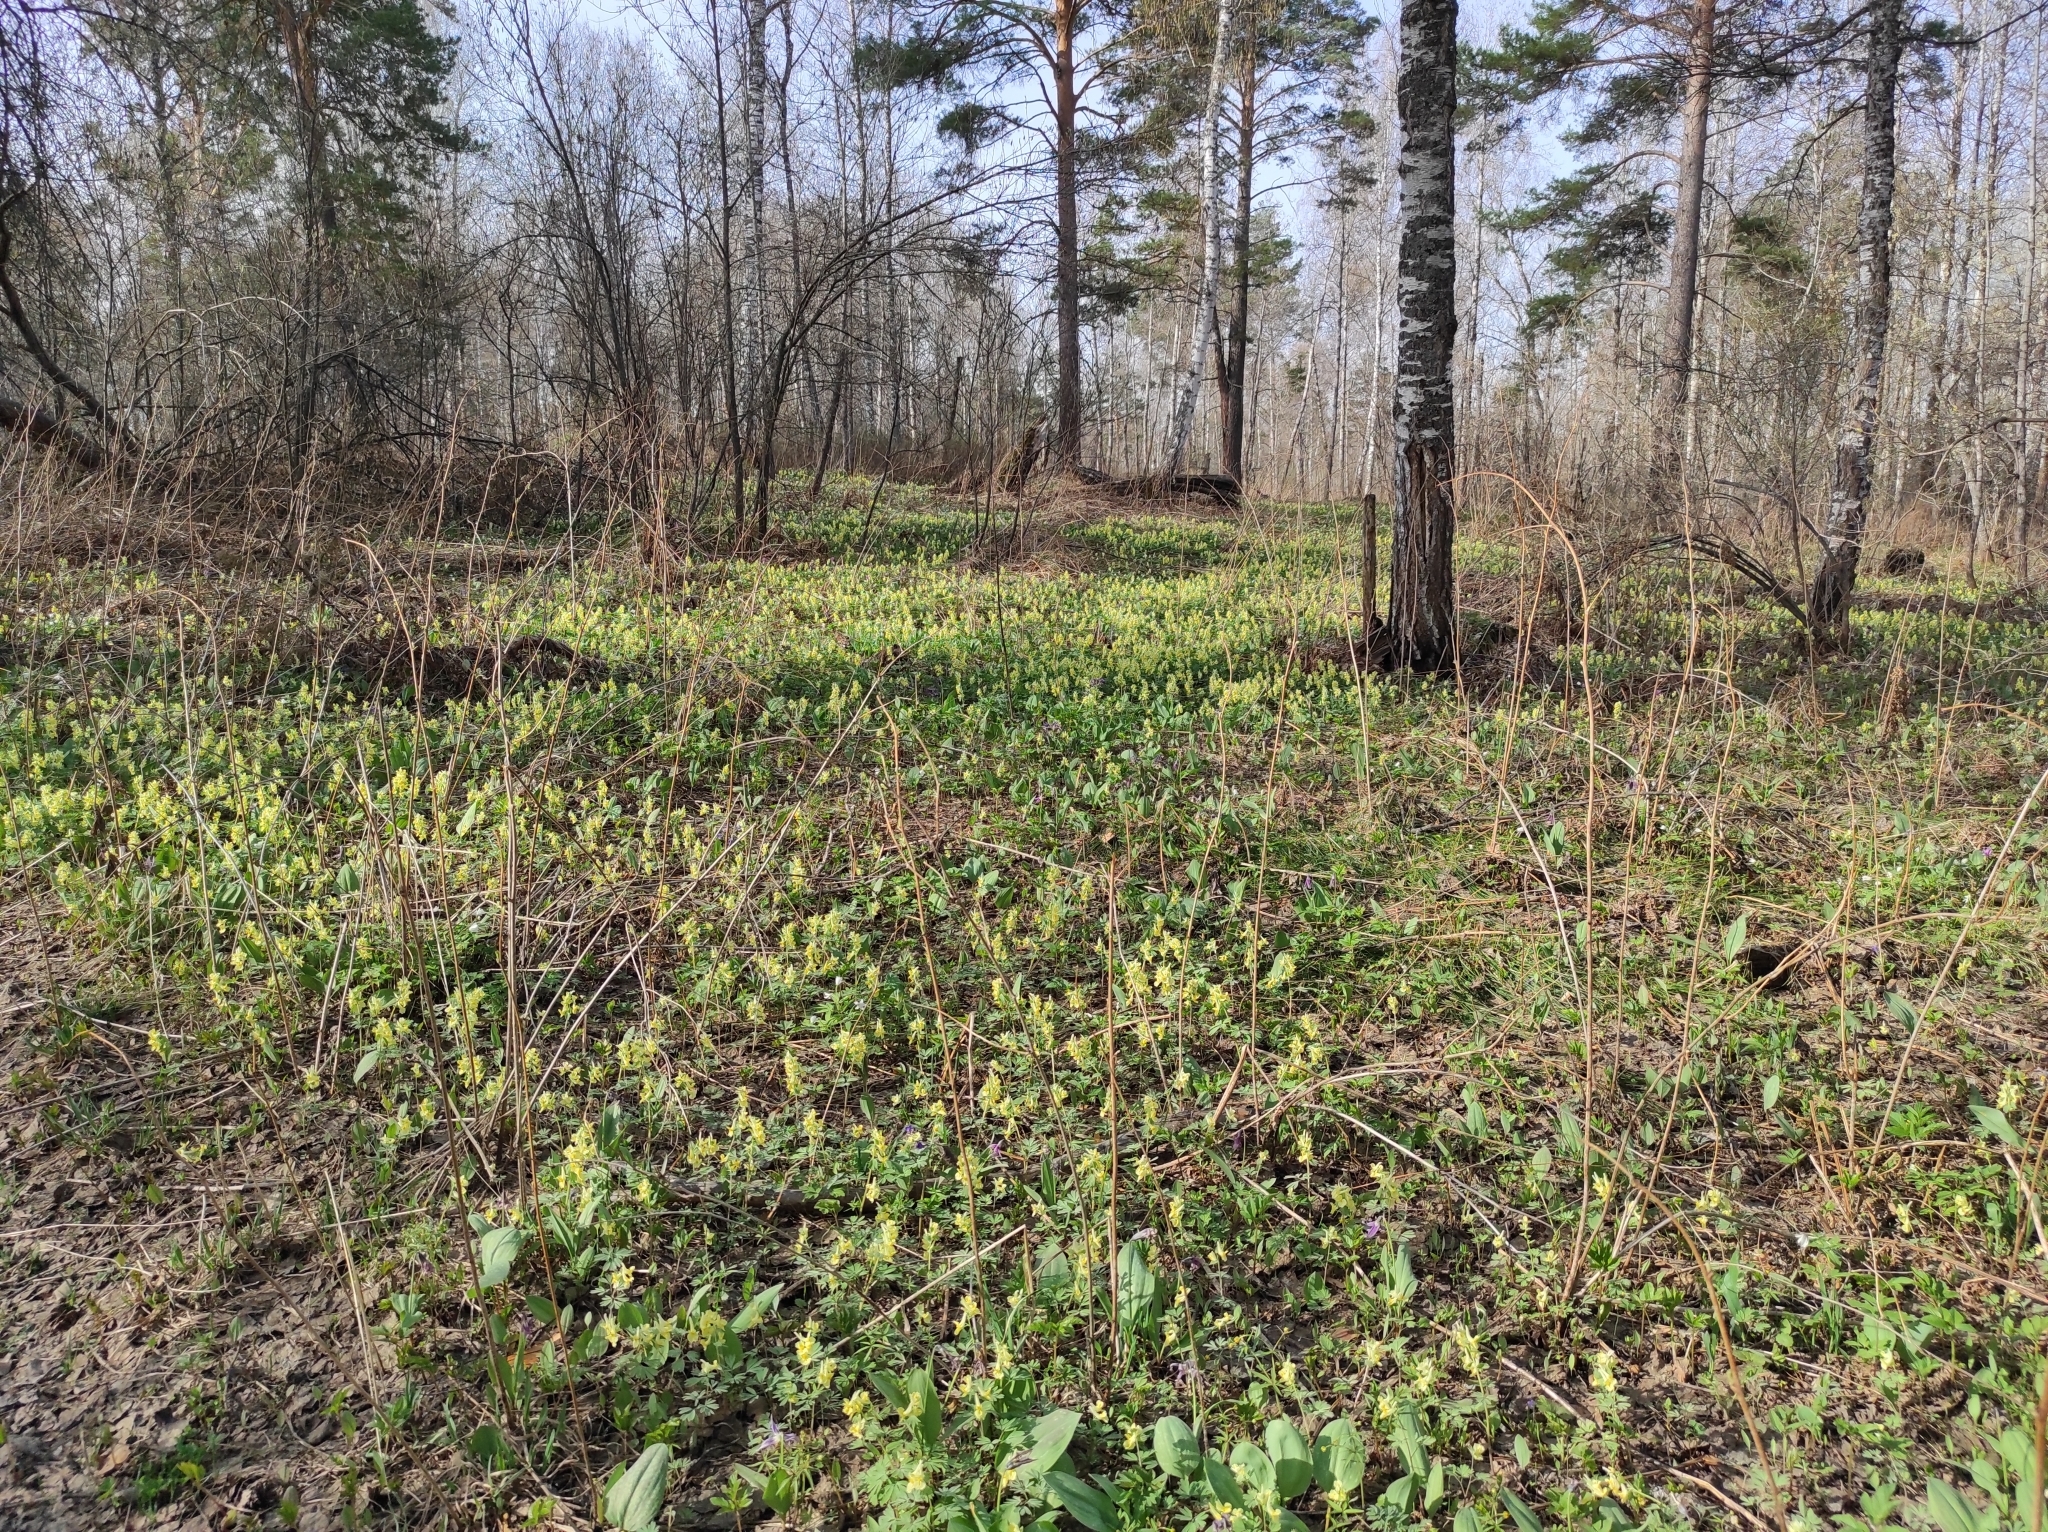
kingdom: Plantae
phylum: Tracheophyta
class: Magnoliopsida
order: Ranunculales
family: Papaveraceae
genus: Corydalis
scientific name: Corydalis bracteata
